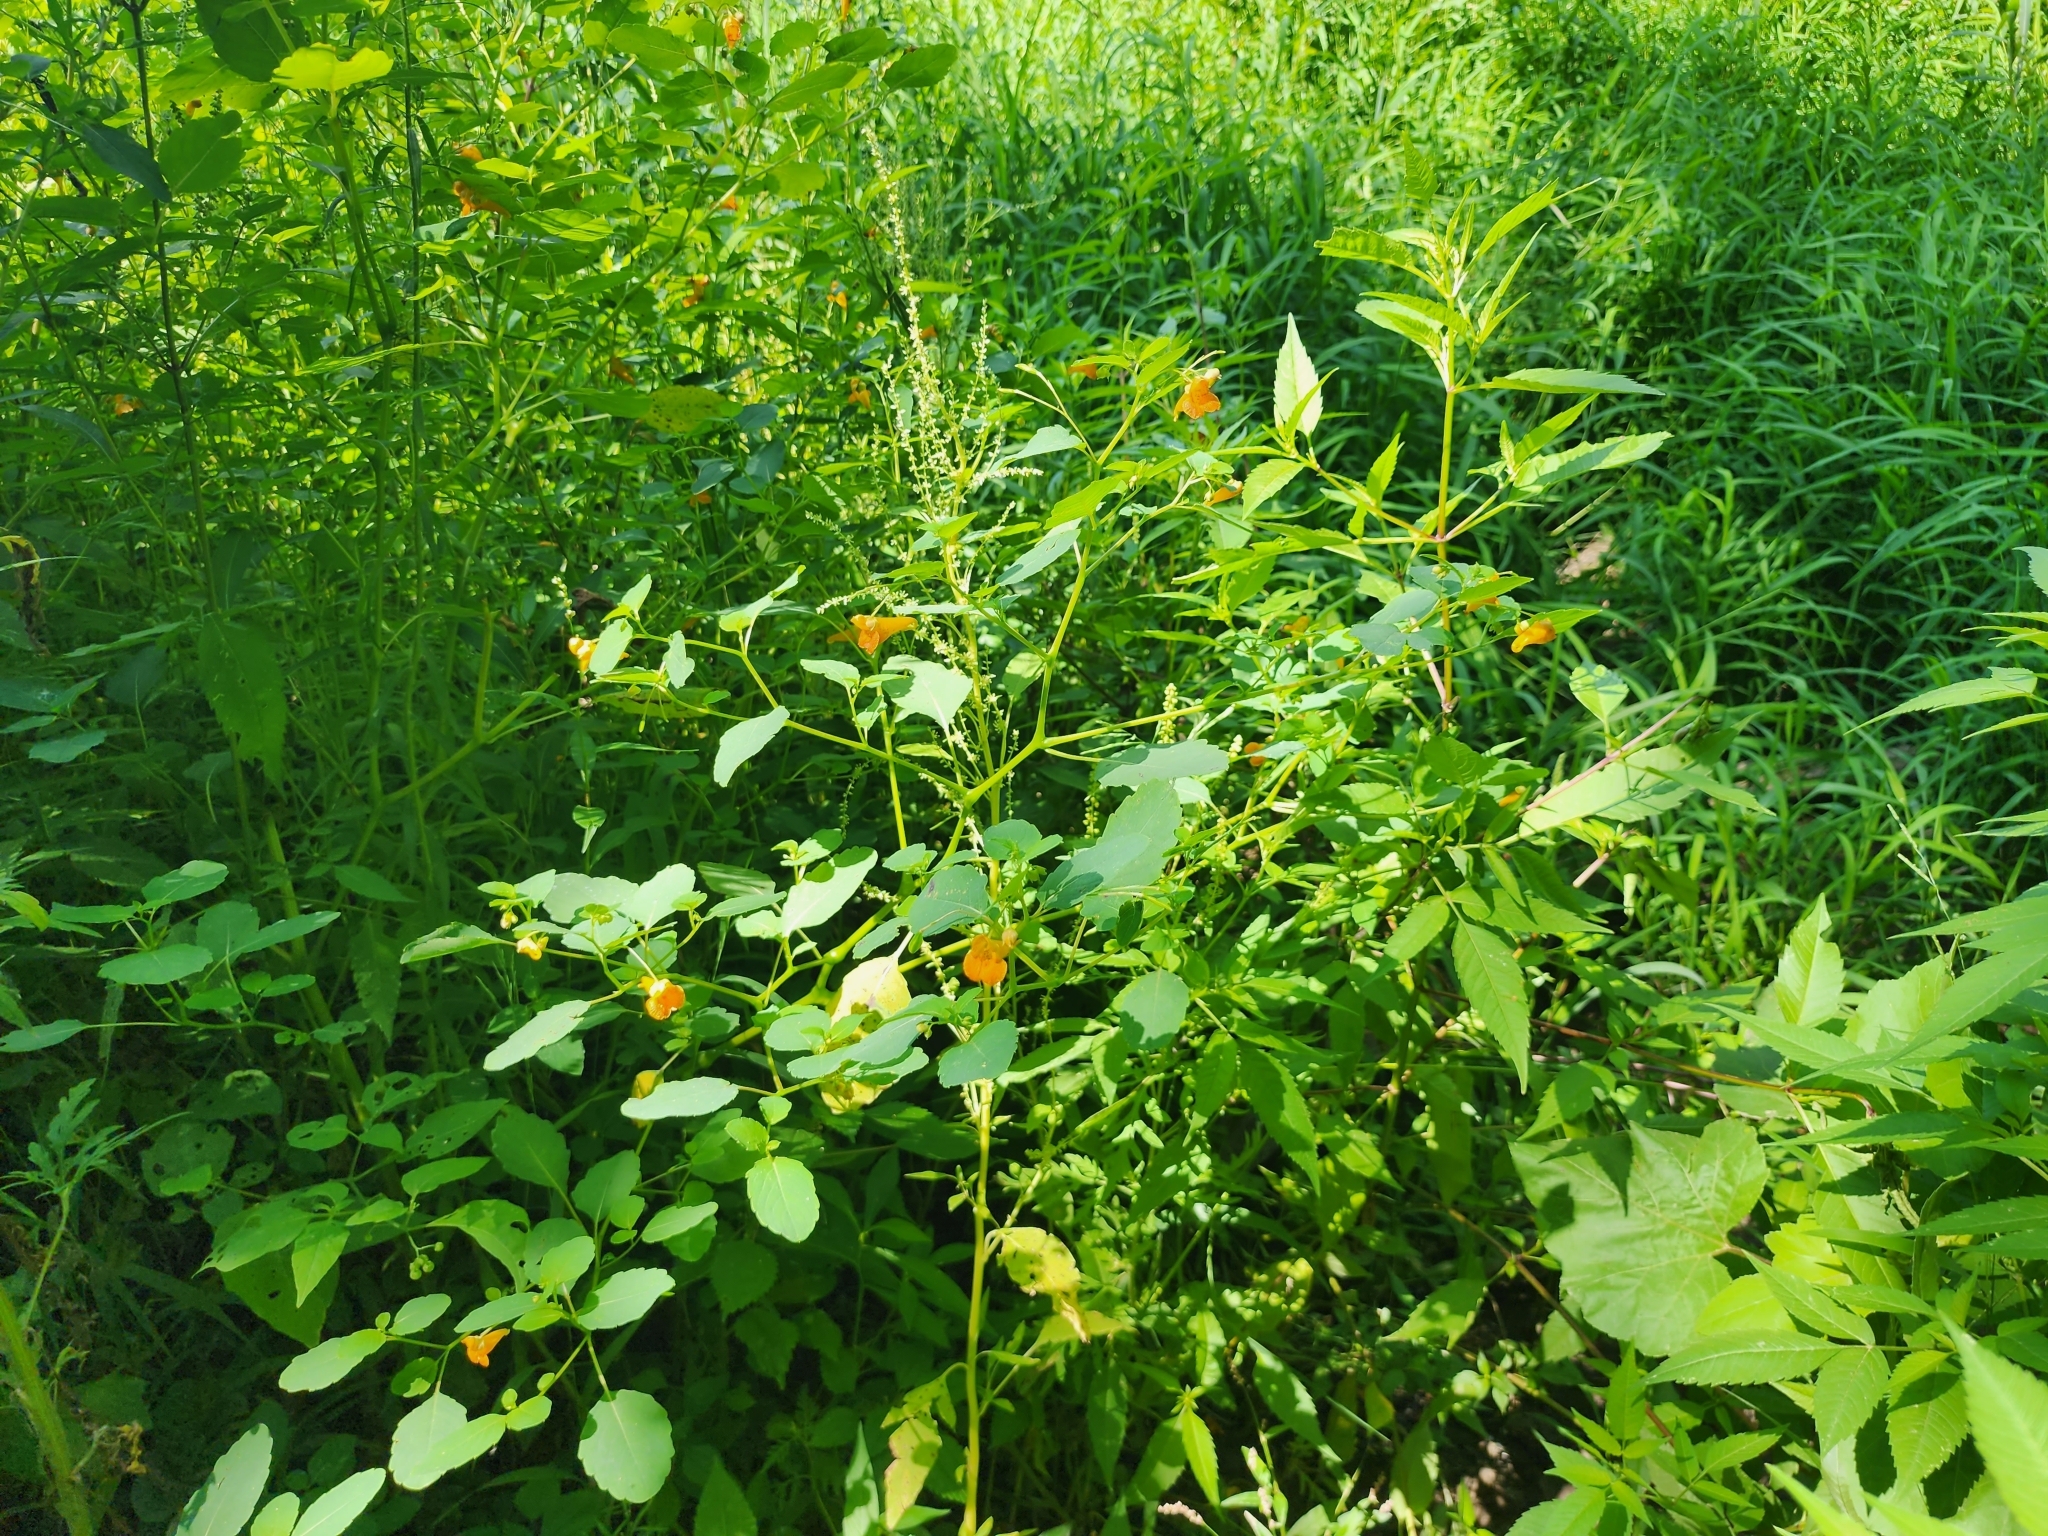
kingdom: Plantae
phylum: Tracheophyta
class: Magnoliopsida
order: Ericales
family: Balsaminaceae
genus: Impatiens
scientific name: Impatiens capensis
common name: Orange balsam
